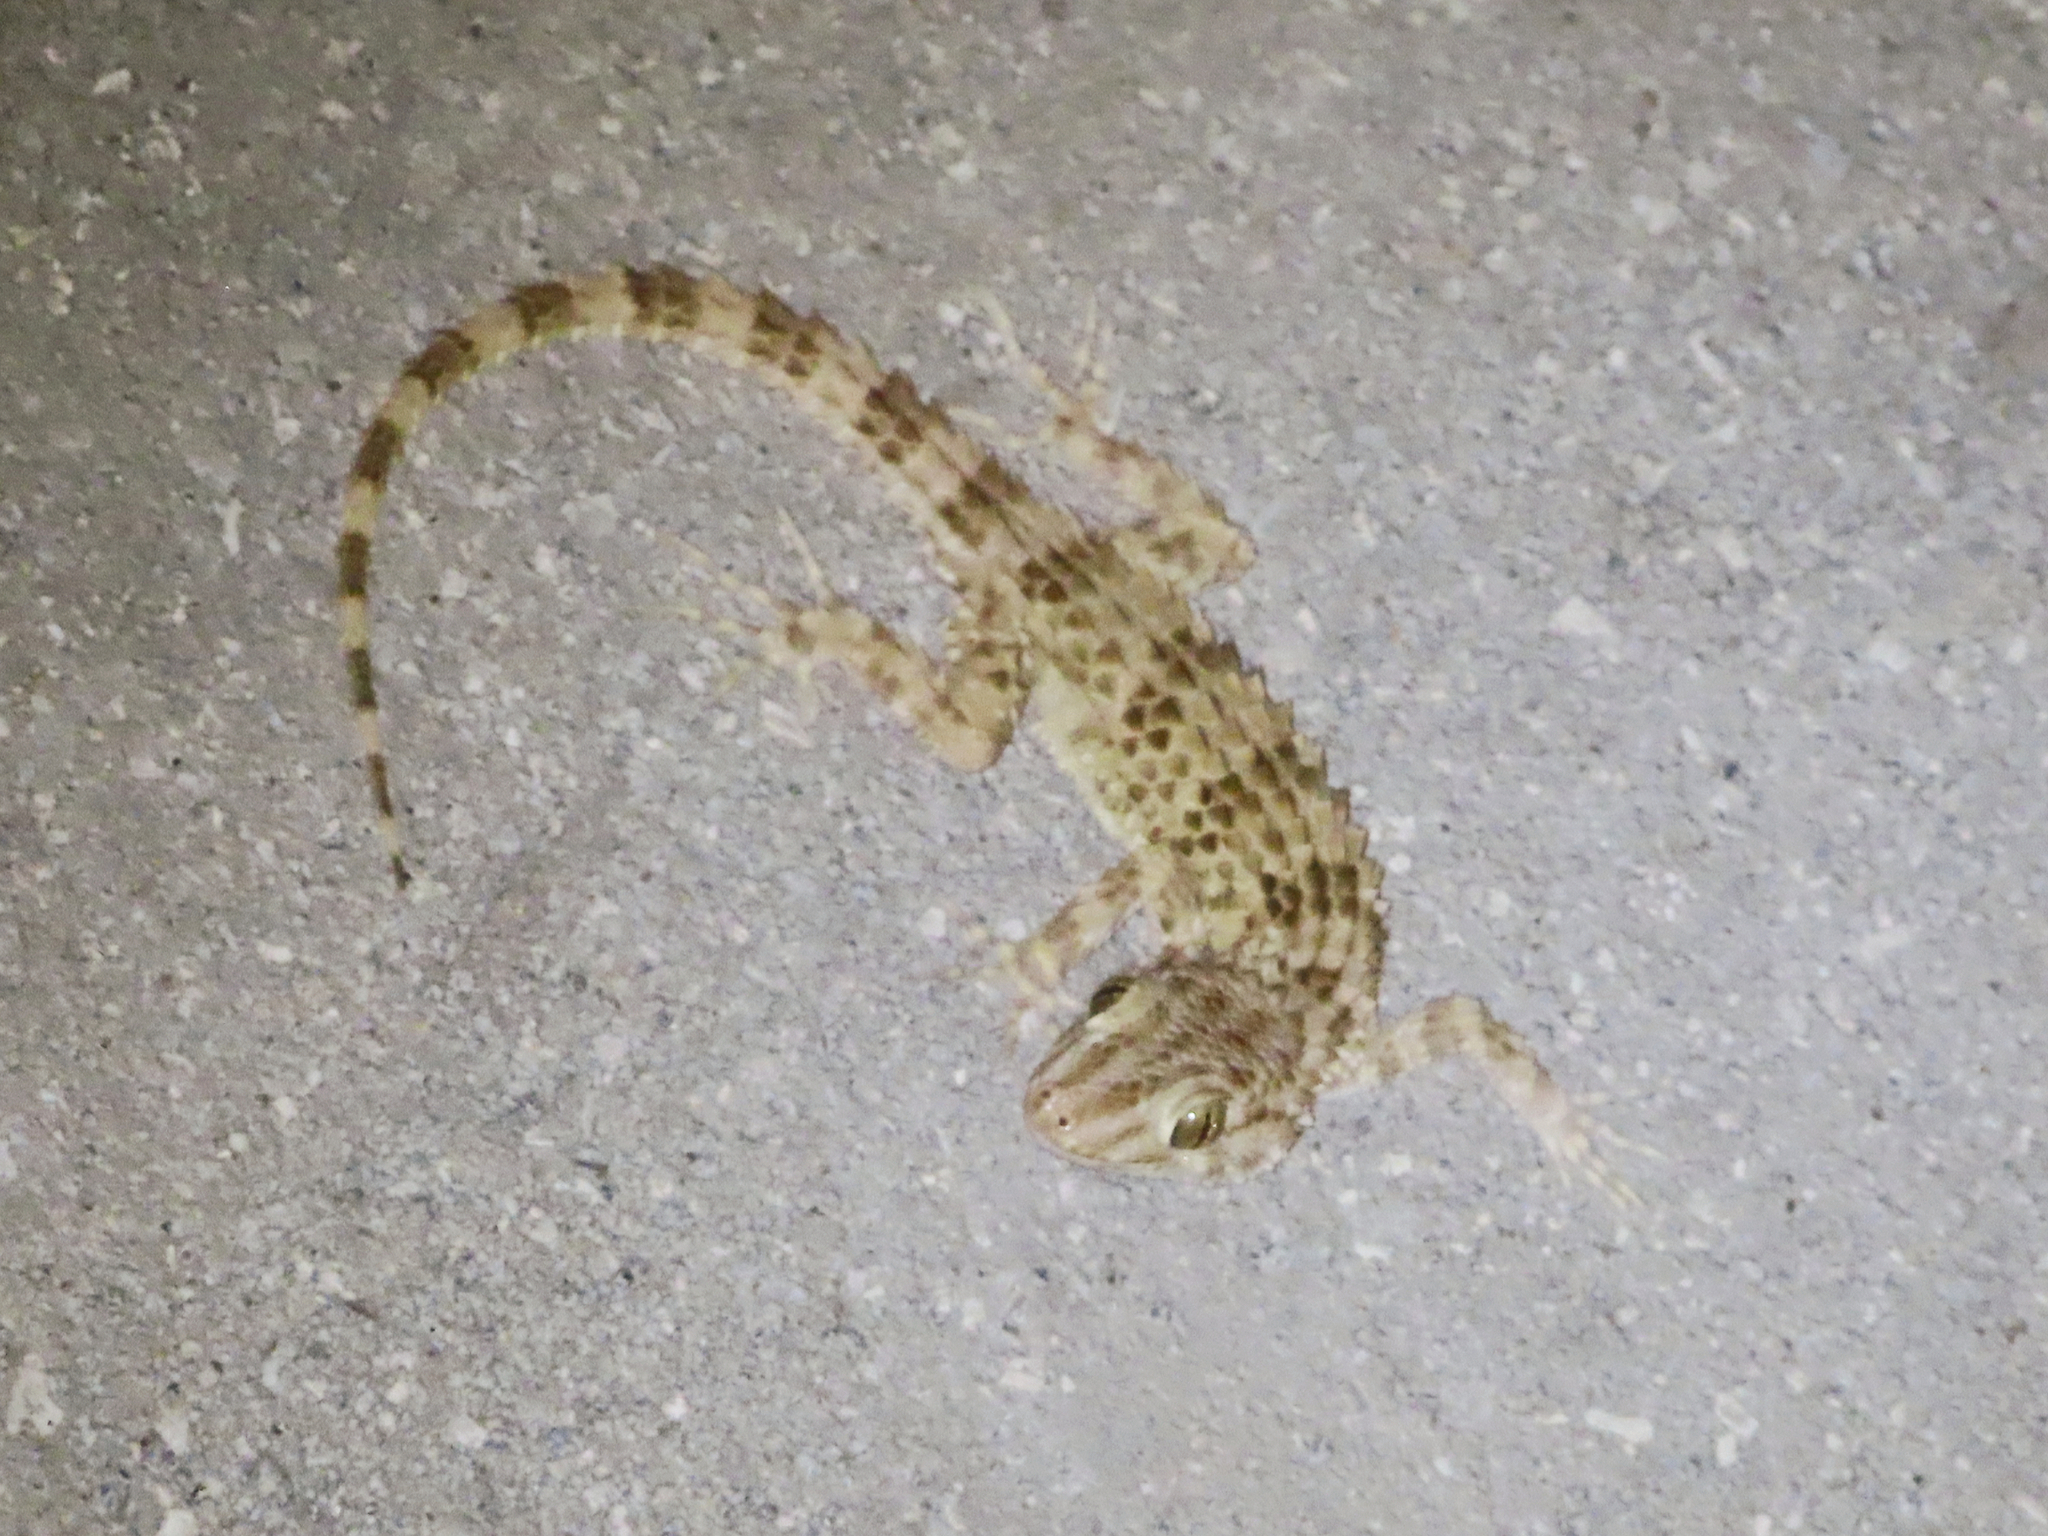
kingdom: Animalia
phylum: Chordata
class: Squamata
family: Gekkonidae
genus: Tenuidactylus
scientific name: Tenuidactylus caspius
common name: Caspian bent-toed gecko
